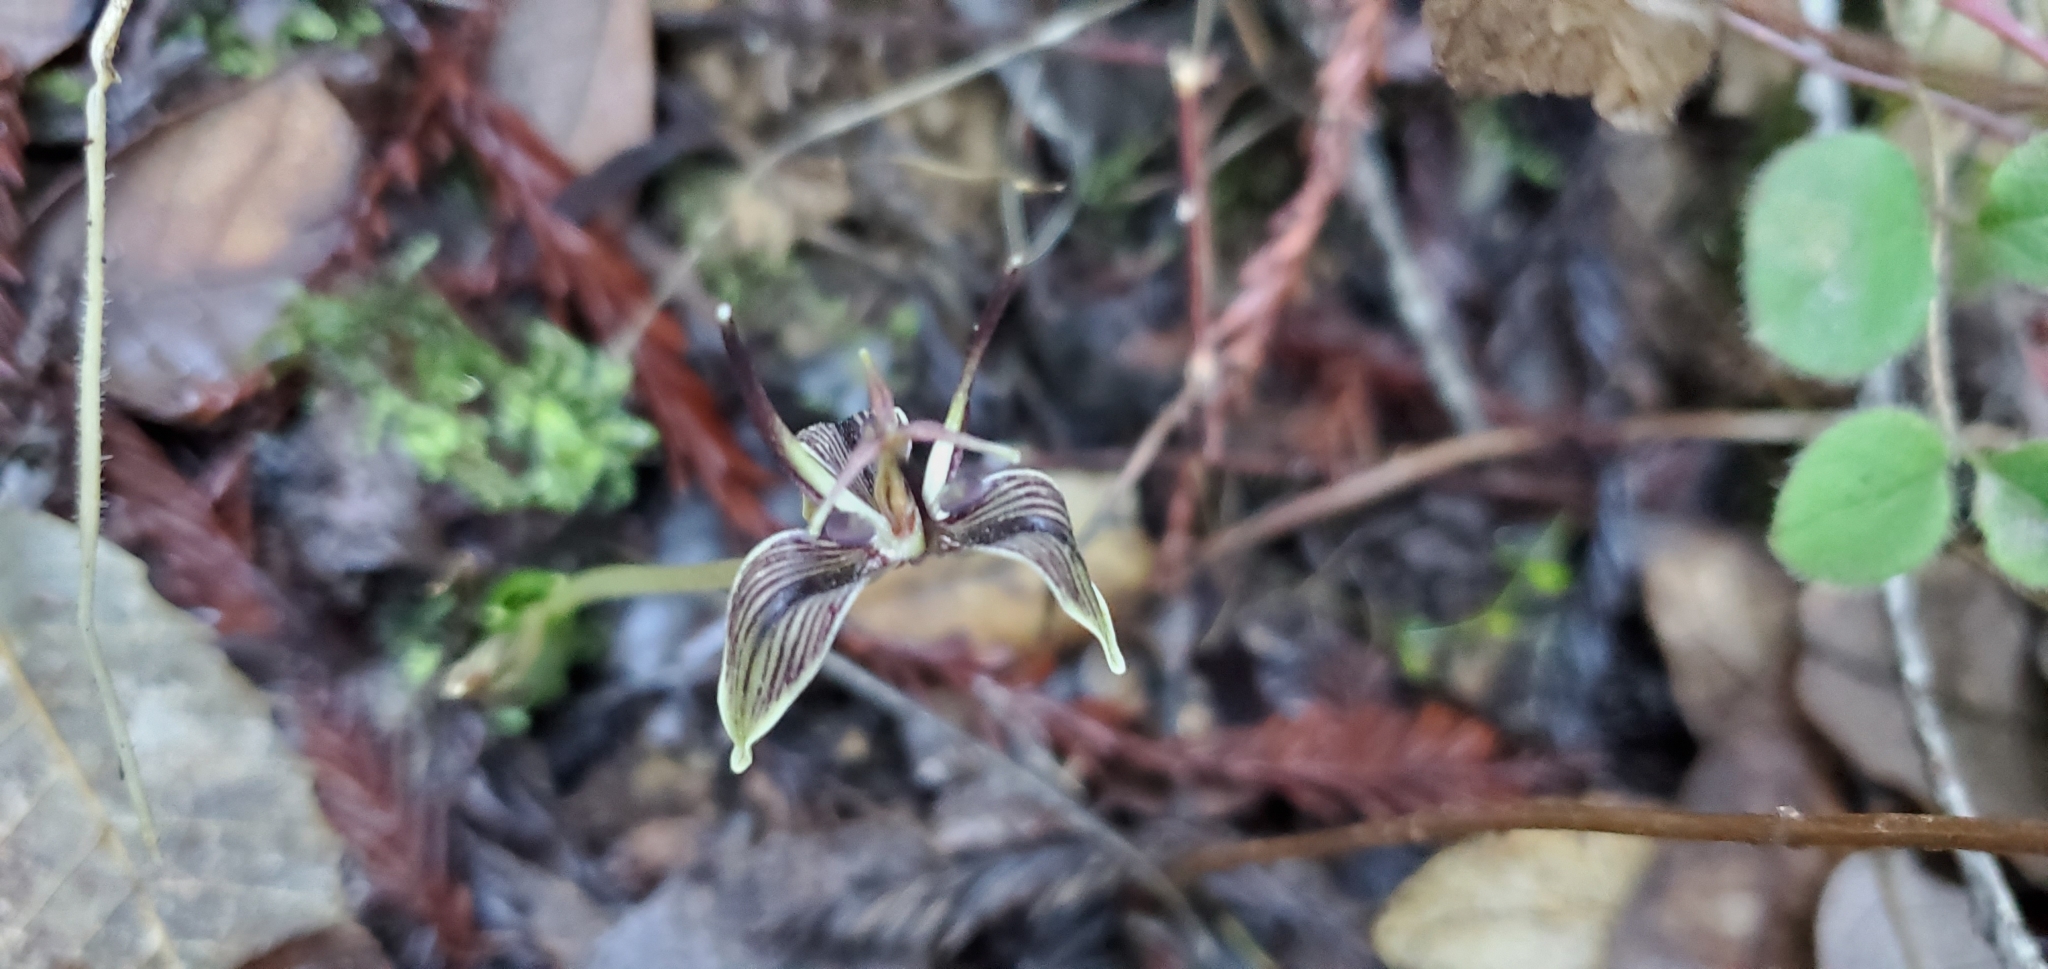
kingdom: Plantae
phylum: Tracheophyta
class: Liliopsida
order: Liliales
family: Liliaceae
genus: Scoliopus
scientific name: Scoliopus bigelovii
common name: Foetid adder's-tongue
